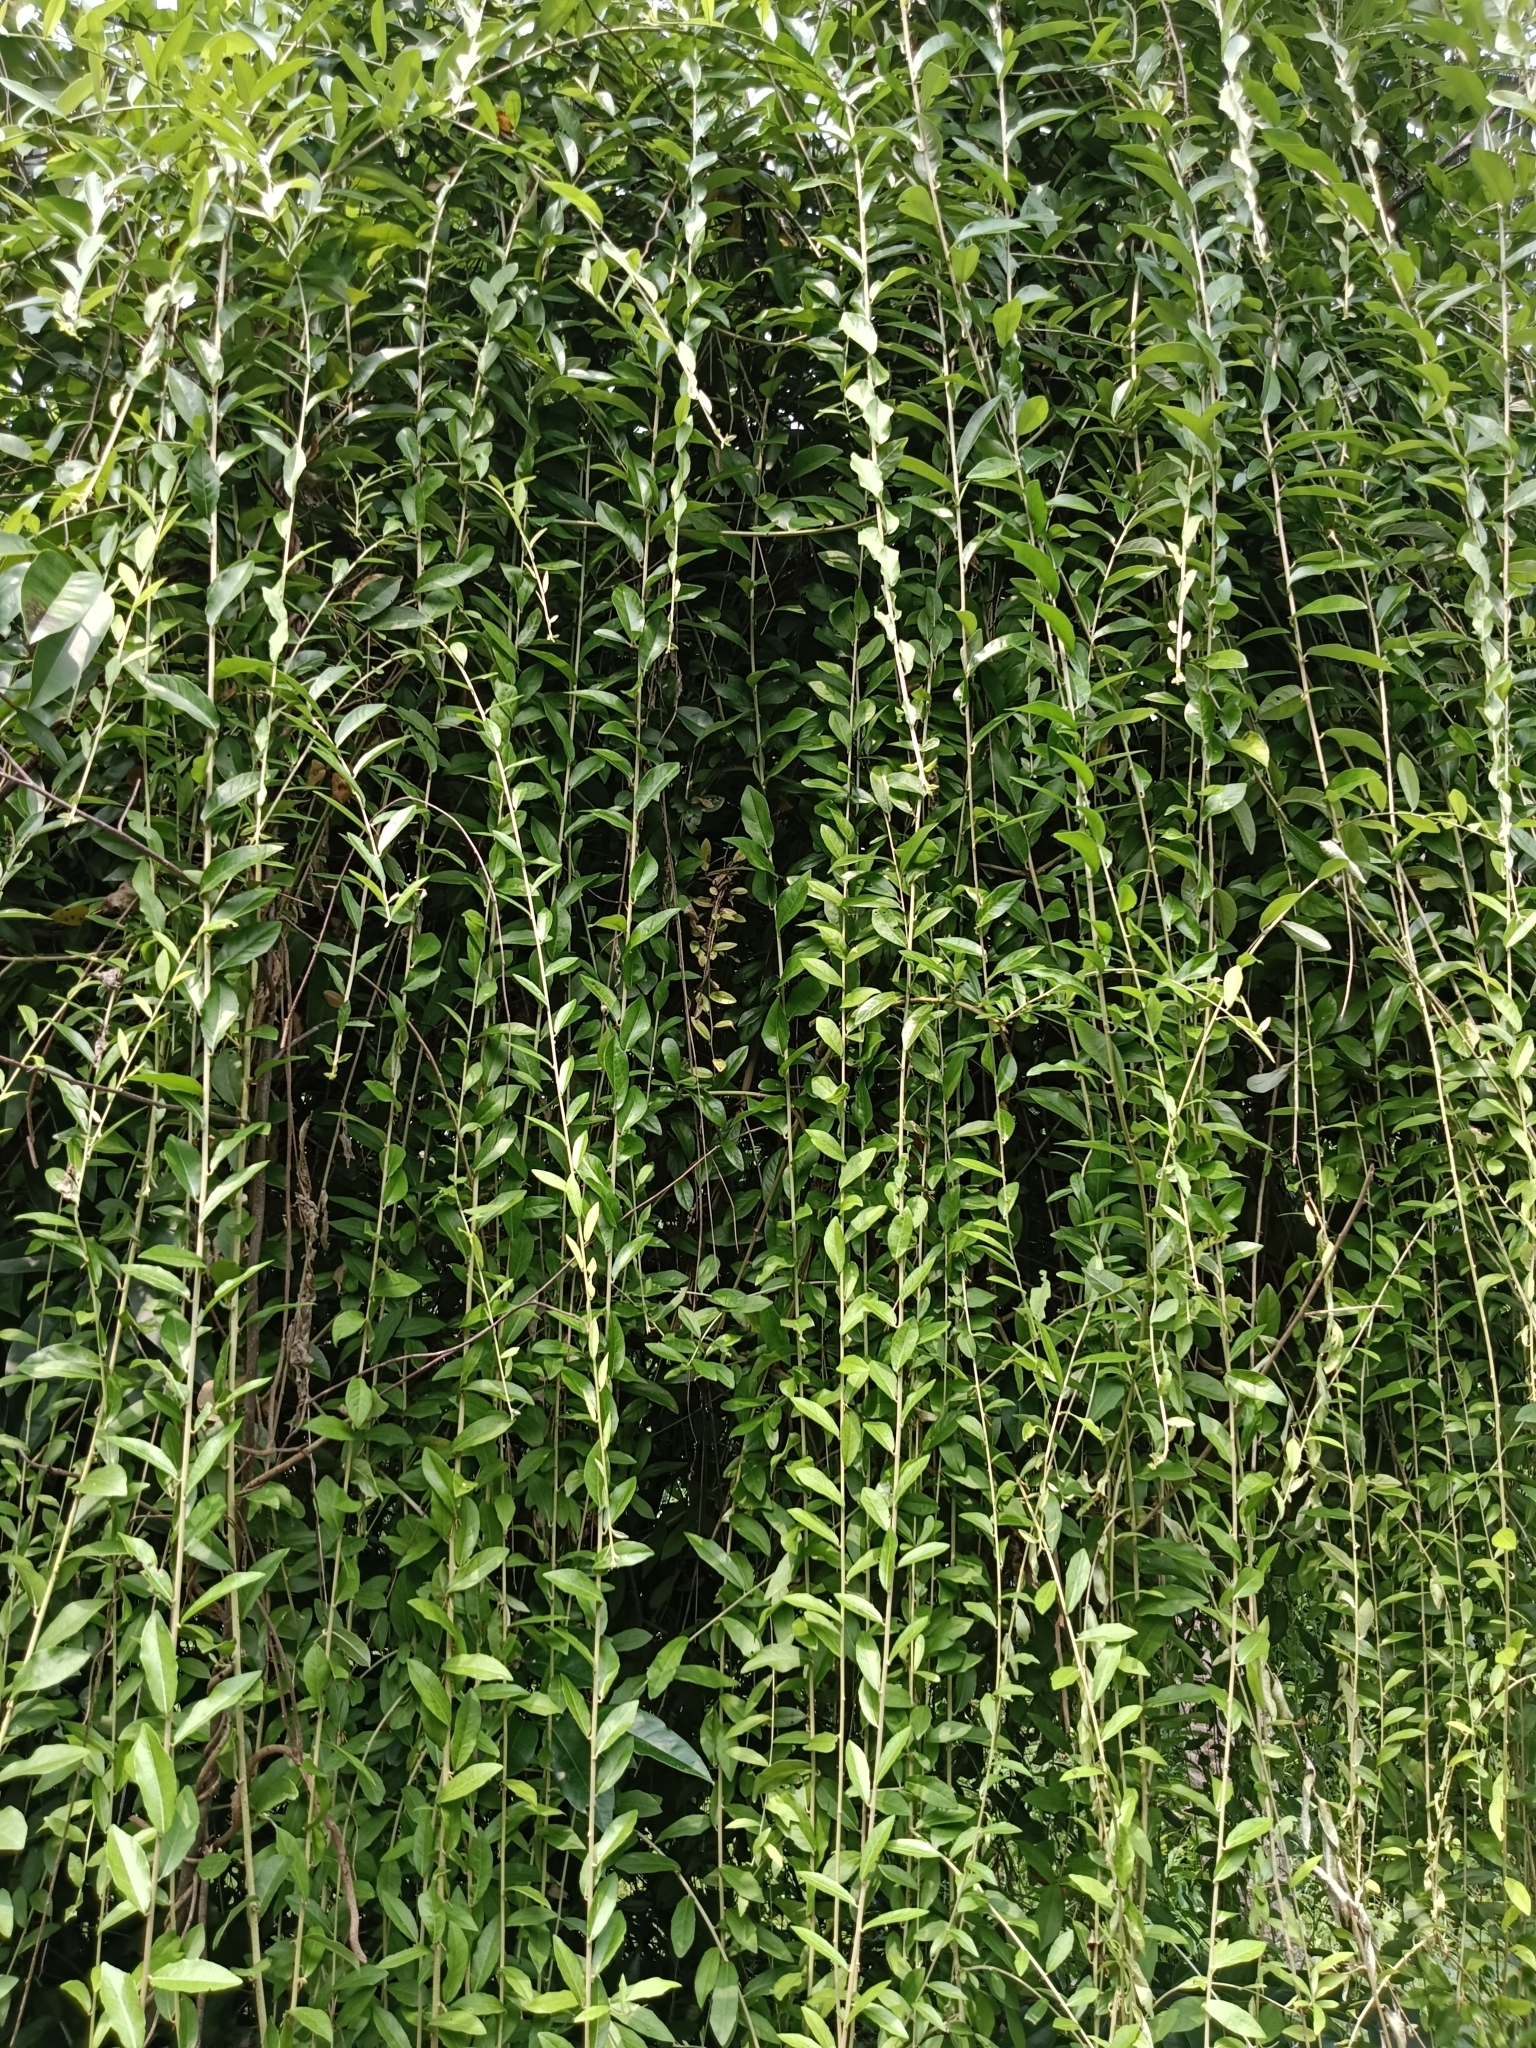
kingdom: Plantae
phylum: Tracheophyta
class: Magnoliopsida
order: Asterales
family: Asteraceae
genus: Tarlmounia
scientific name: Tarlmounia elliptica
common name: Kheua sa lot
